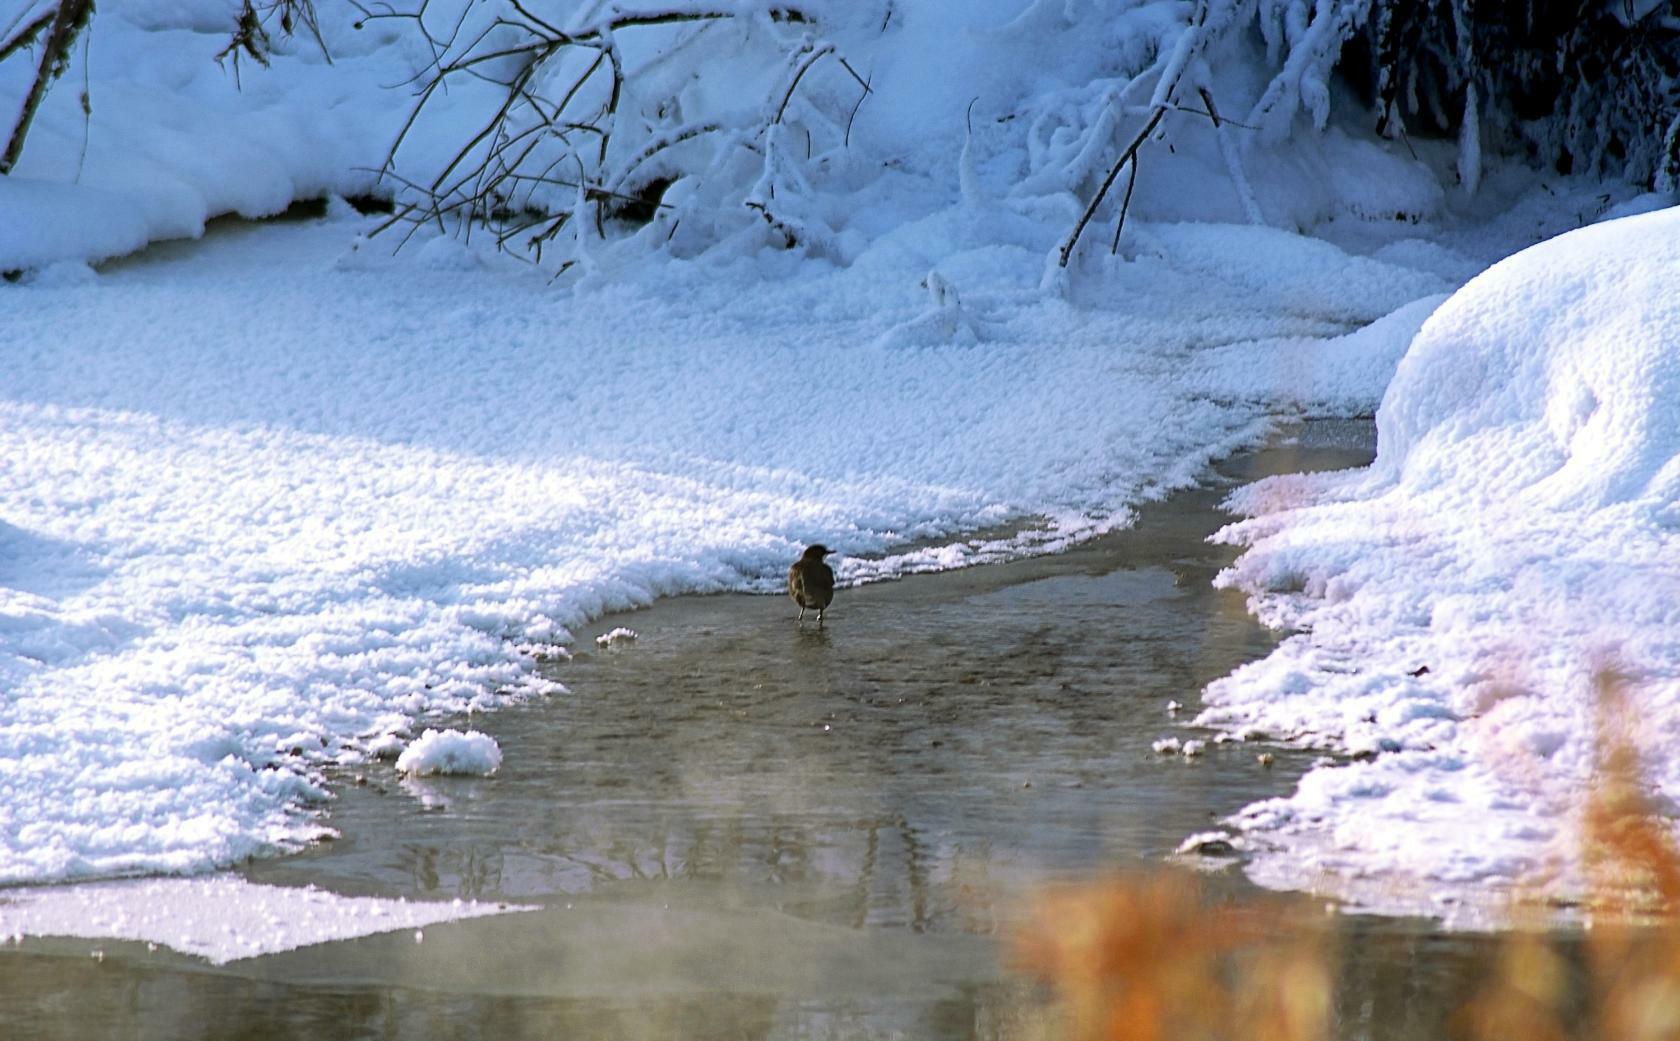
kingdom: Animalia
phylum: Chordata
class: Aves
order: Passeriformes
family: Cinclidae
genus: Cinclus
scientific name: Cinclus cinclus
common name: White-throated dipper
